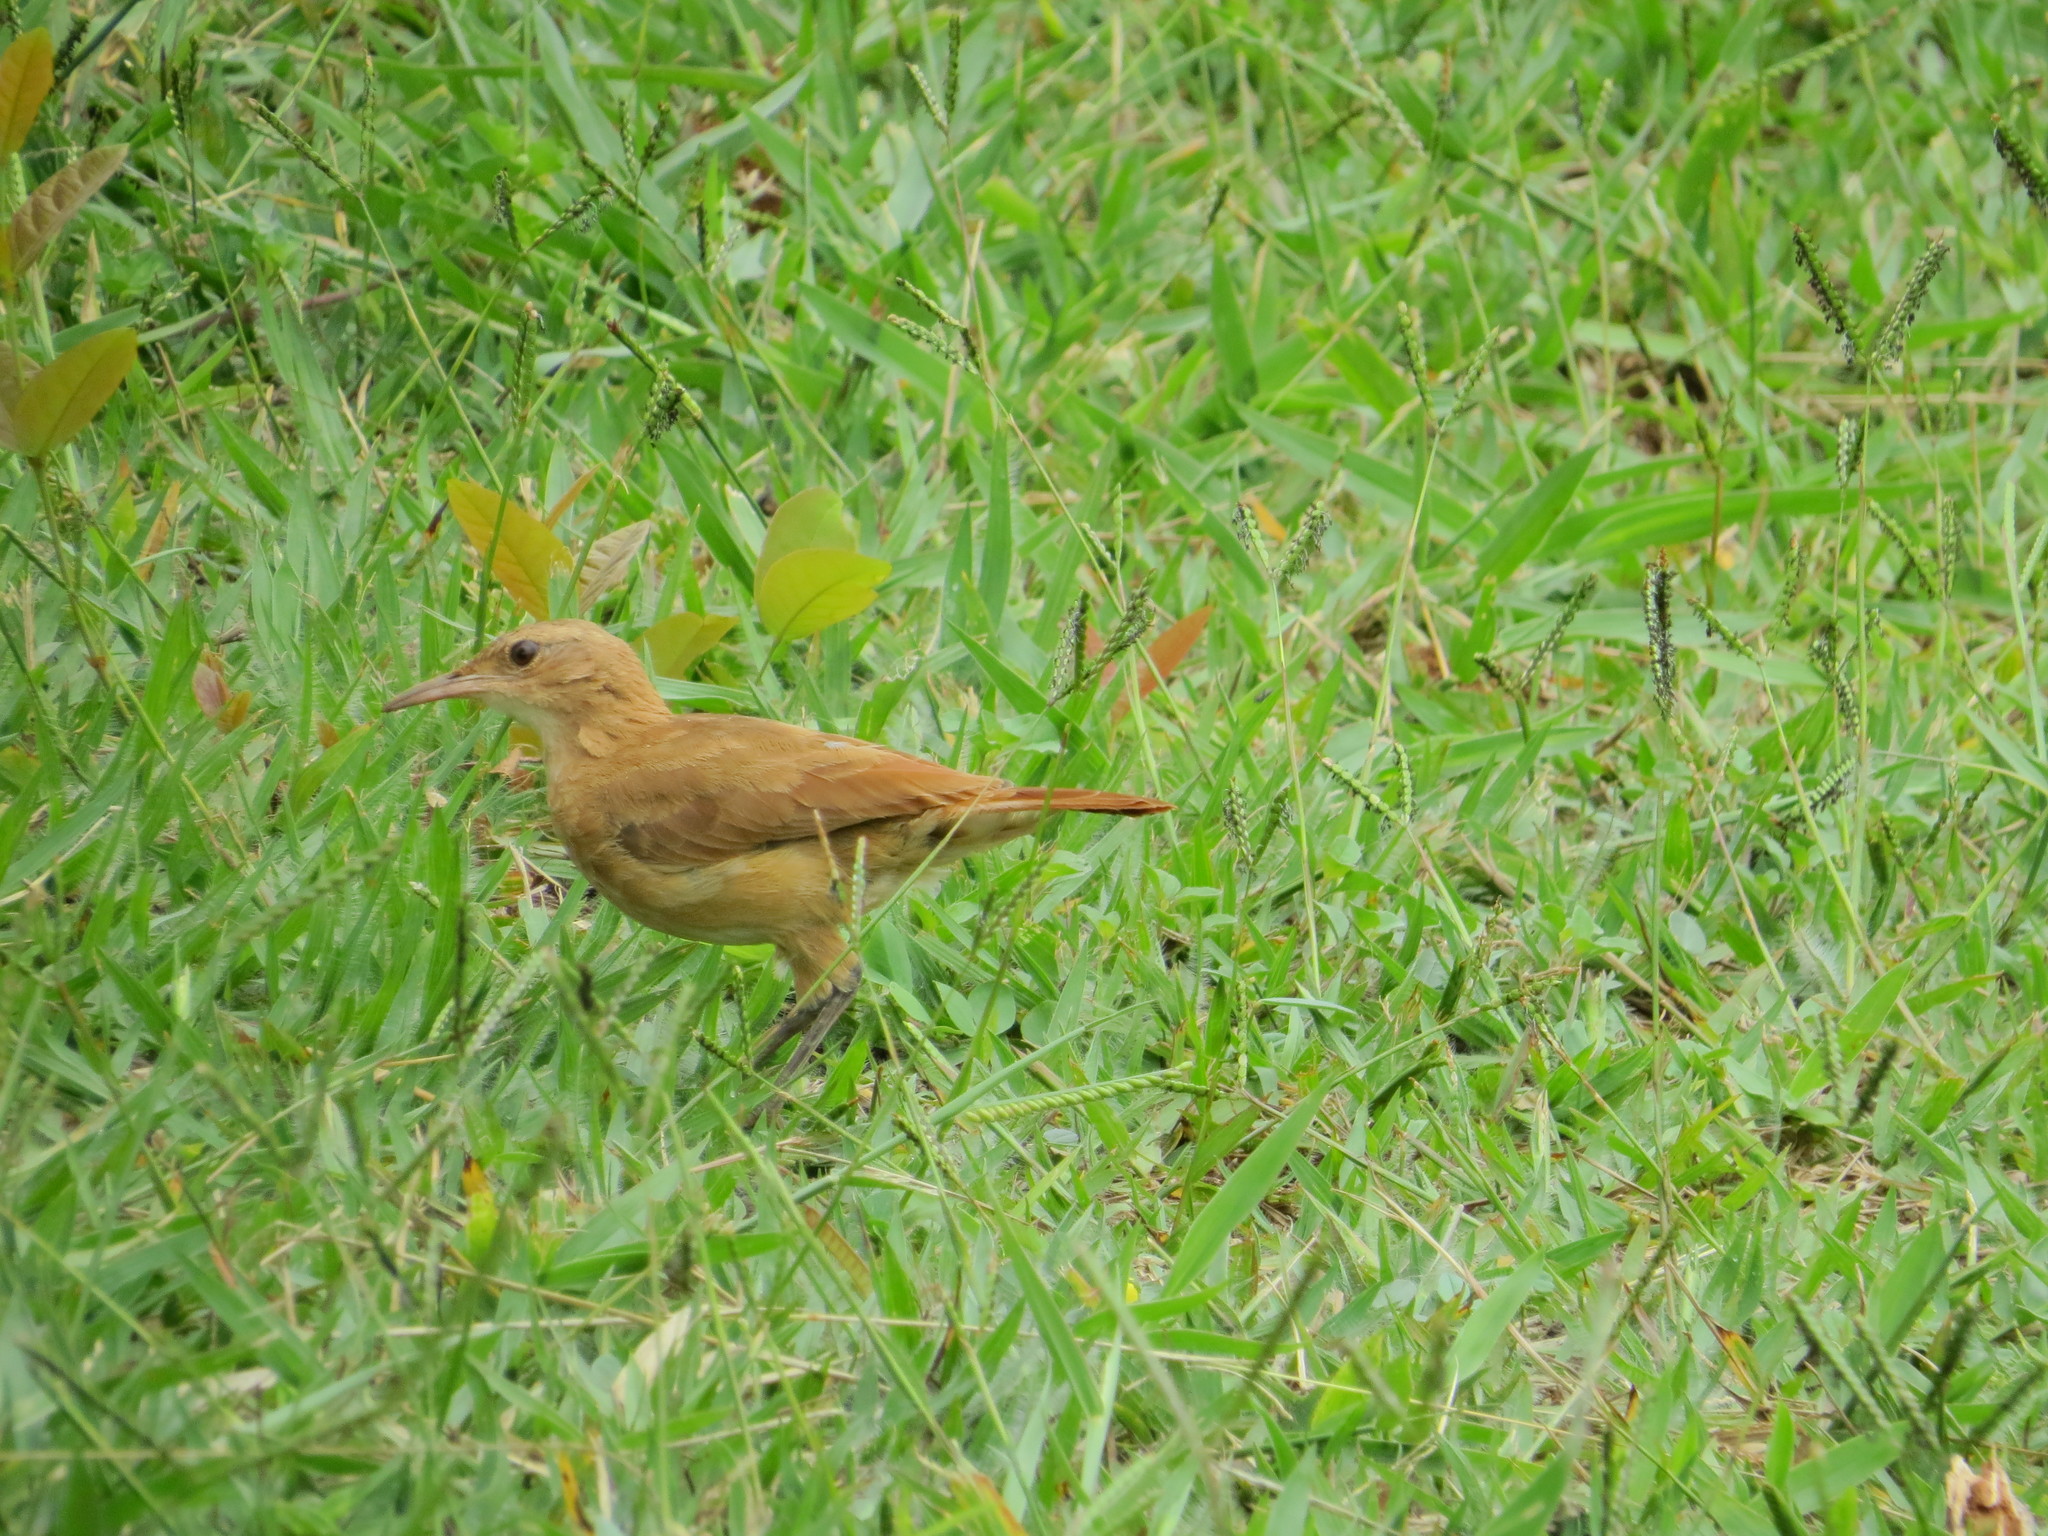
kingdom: Animalia
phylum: Chordata
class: Aves
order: Passeriformes
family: Furnariidae
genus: Furnarius
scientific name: Furnarius rufus
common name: Rufous hornero
